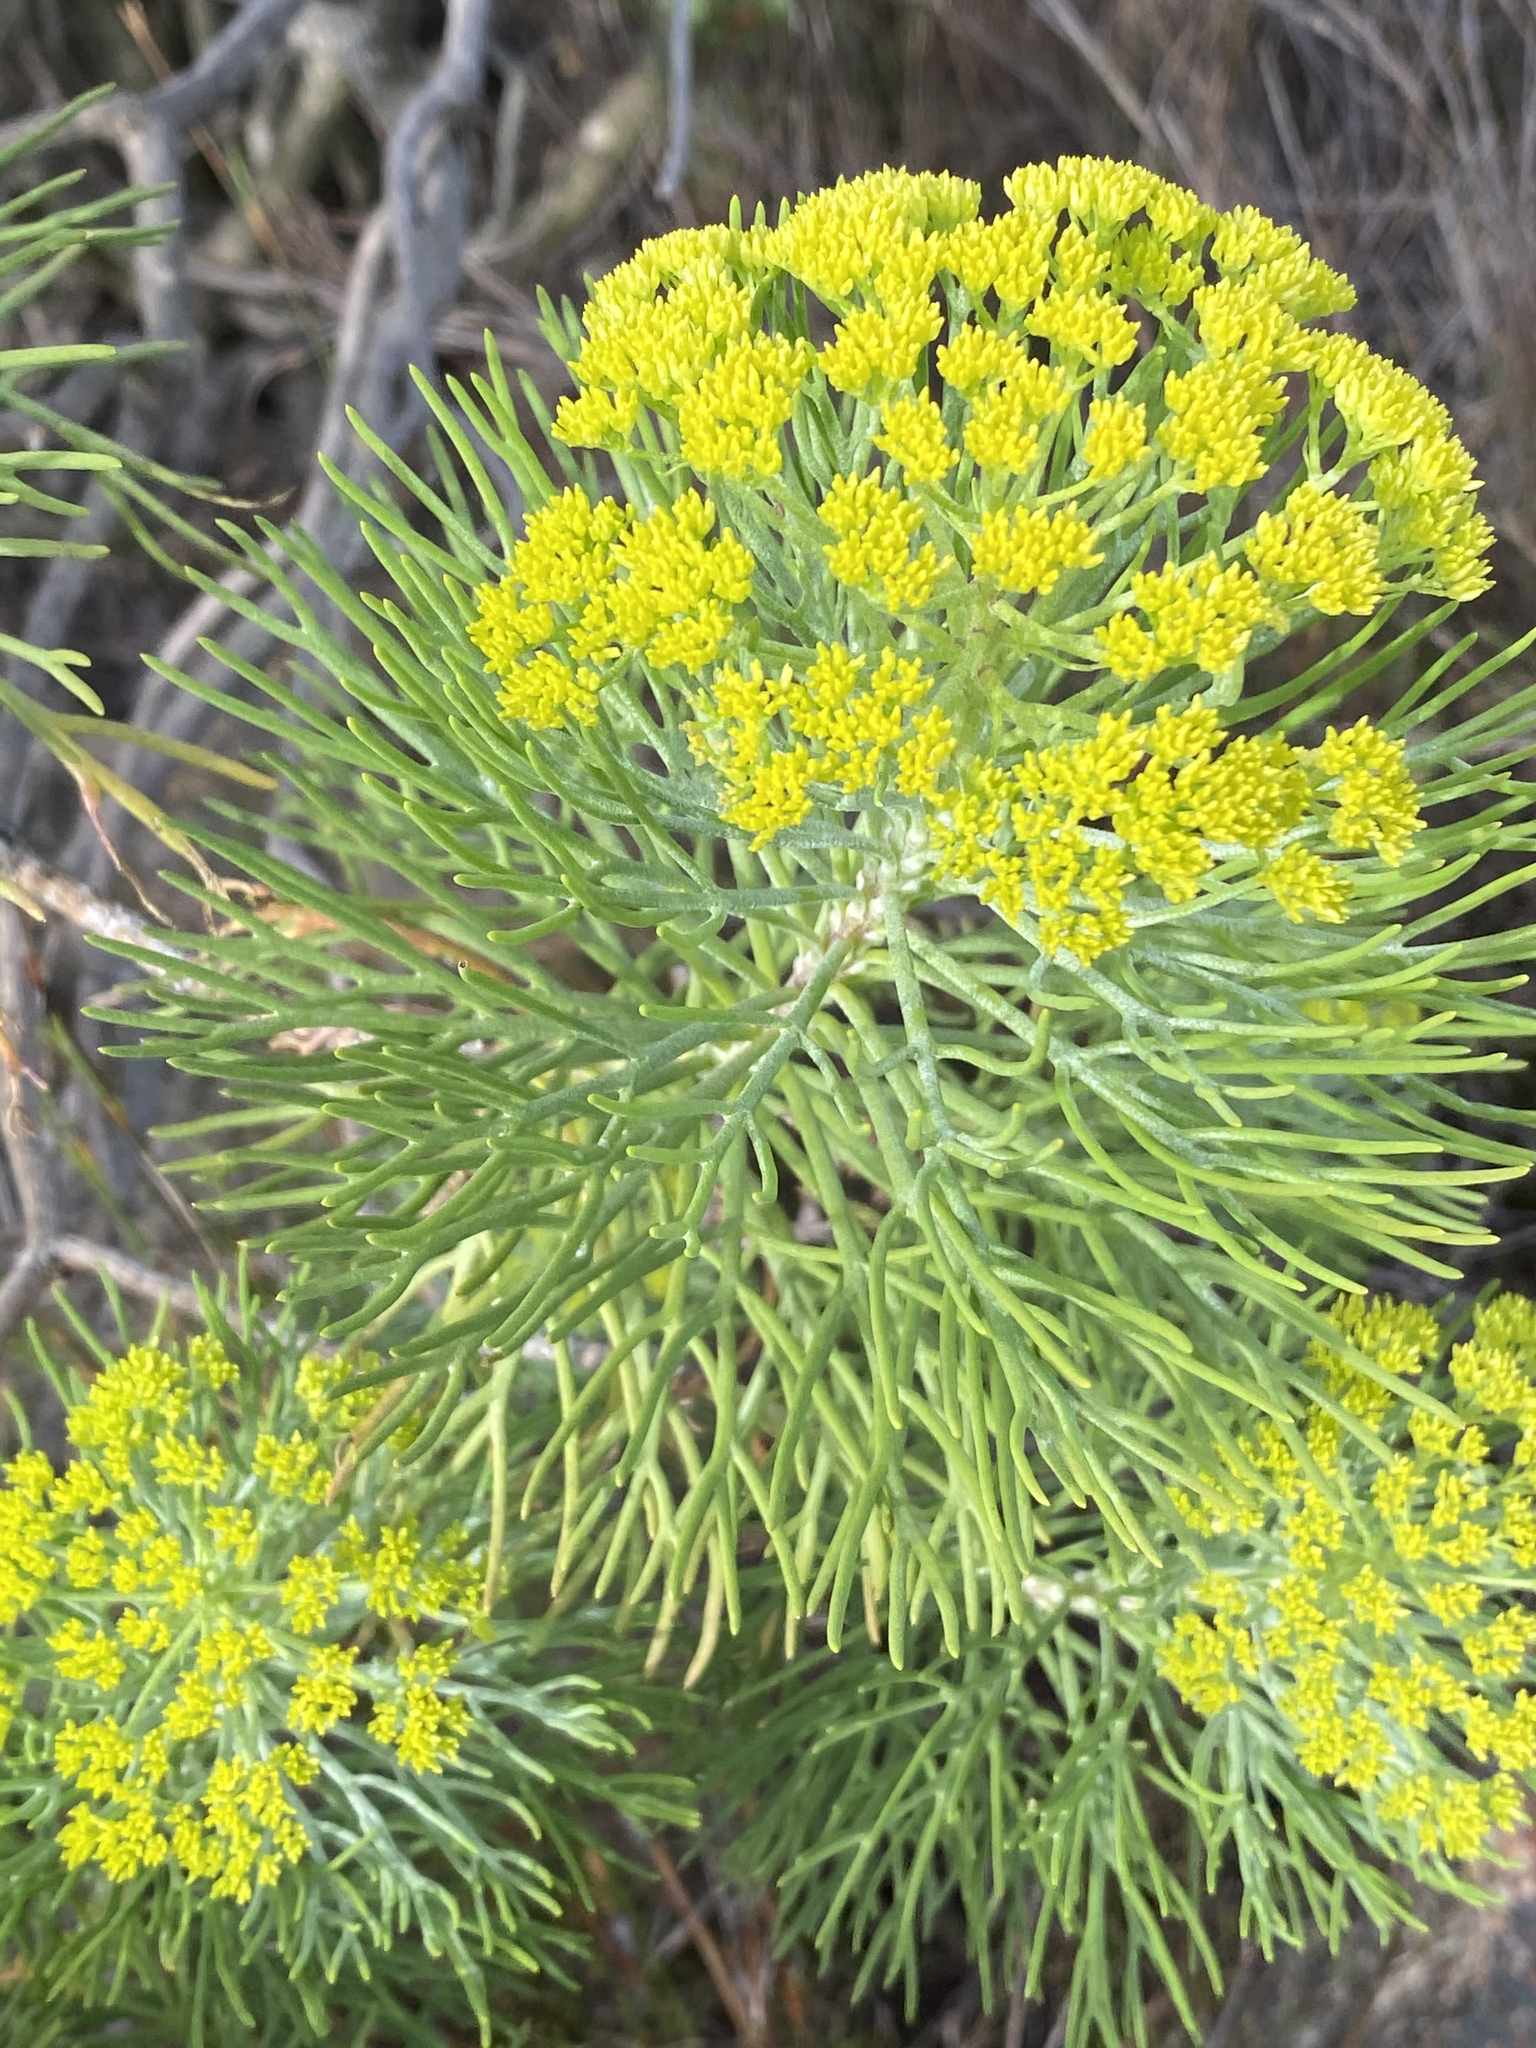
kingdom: Plantae
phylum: Tracheophyta
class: Magnoliopsida
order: Asterales
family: Asteraceae
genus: Hymenolepis
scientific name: Hymenolepis crithmifolia
